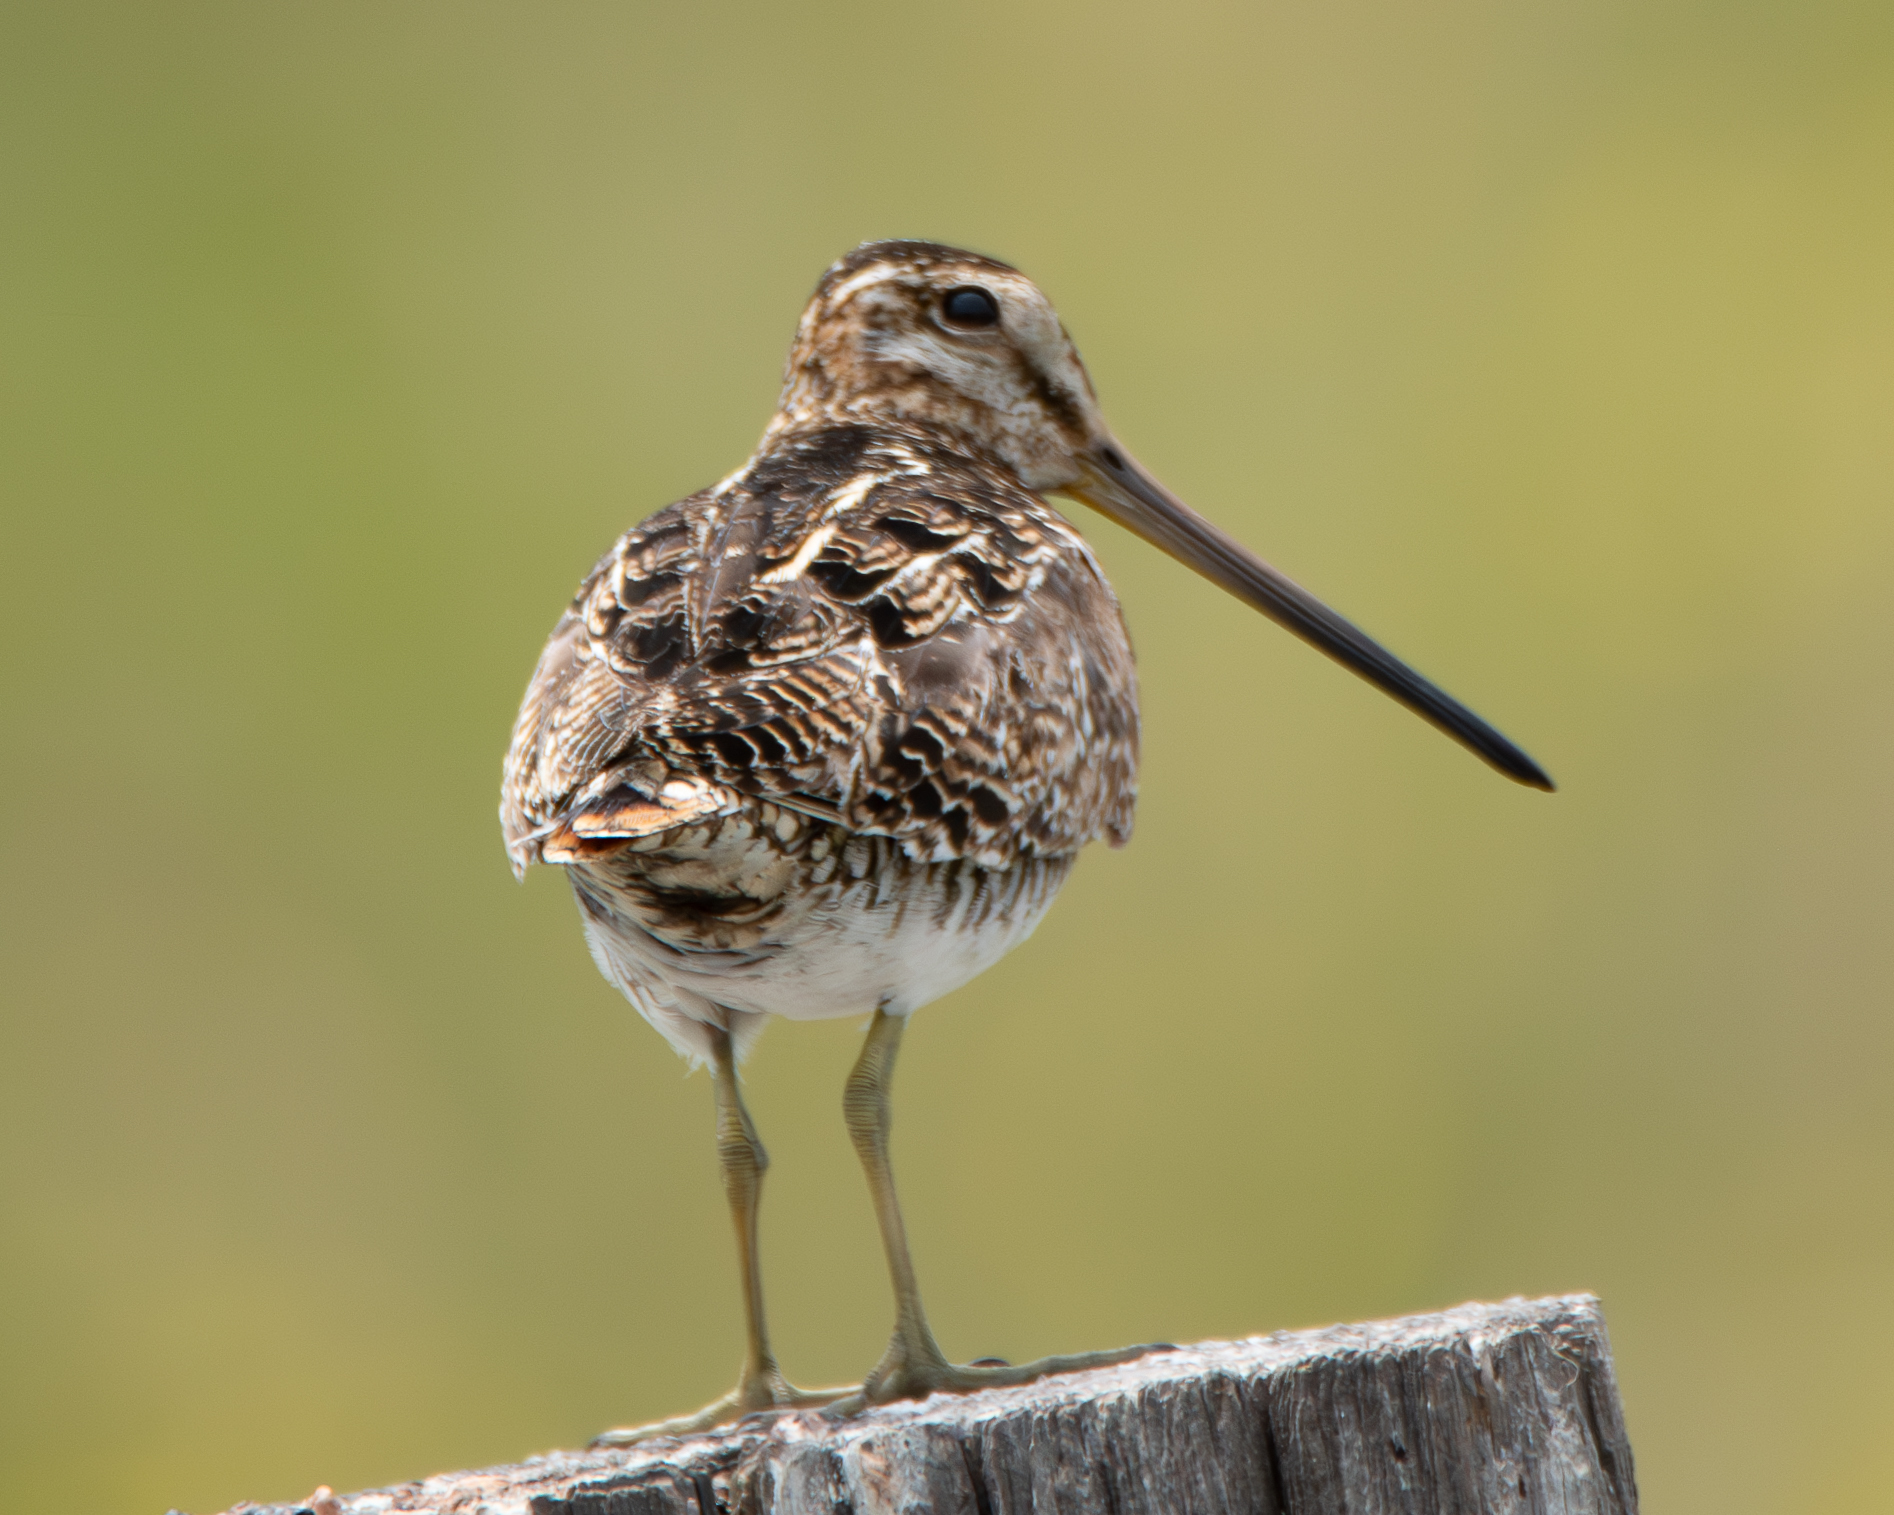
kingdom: Animalia
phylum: Chordata
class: Aves
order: Charadriiformes
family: Scolopacidae
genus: Gallinago
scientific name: Gallinago delicata
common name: Wilson's snipe
